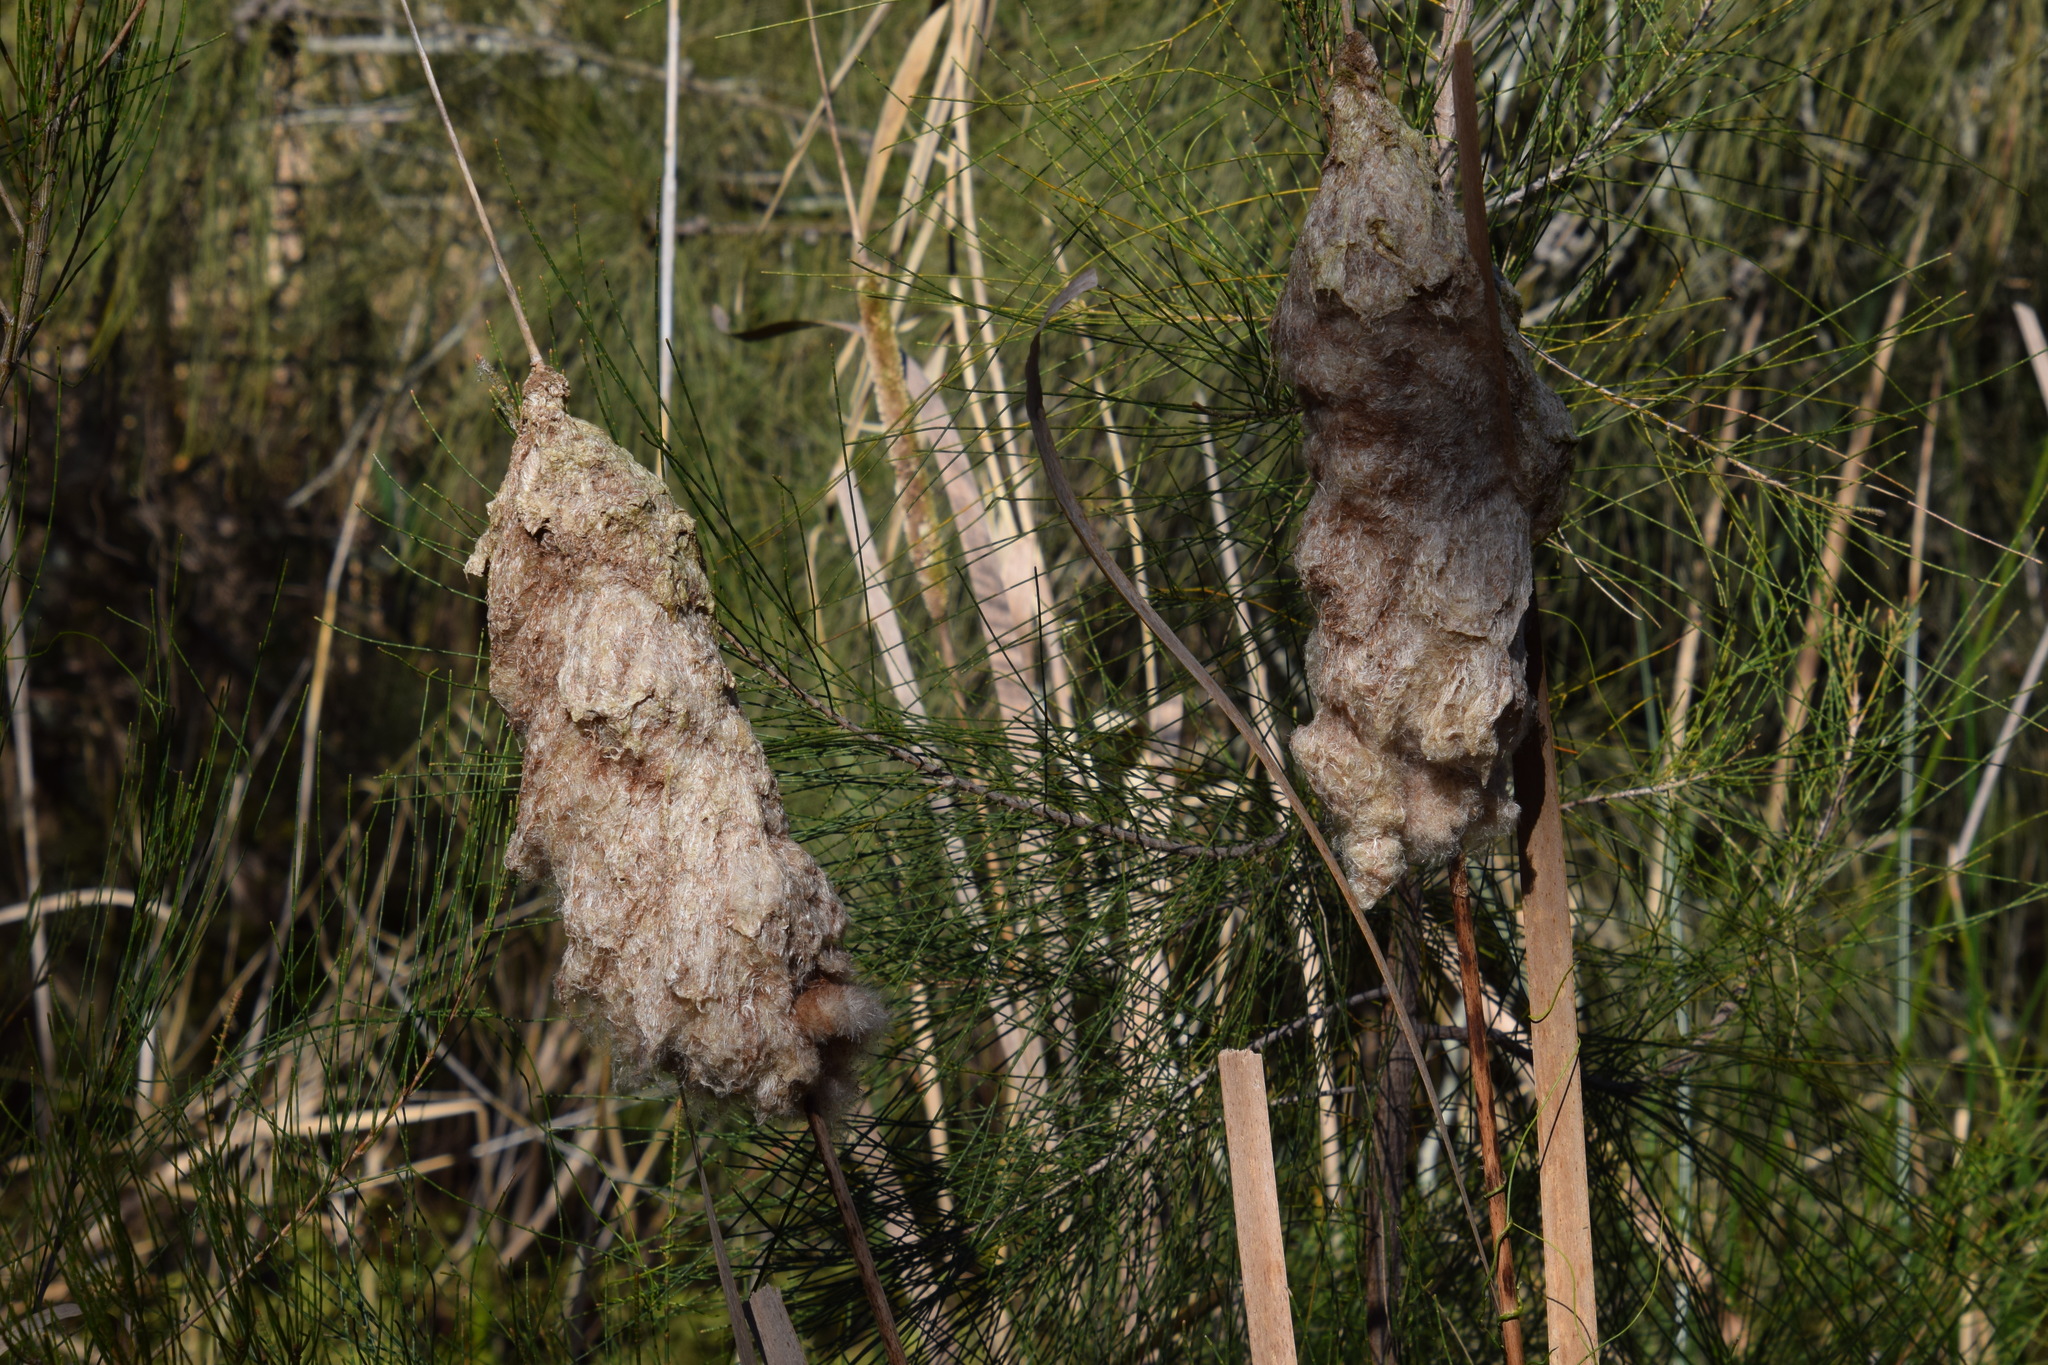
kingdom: Plantae
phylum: Tracheophyta
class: Liliopsida
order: Poales
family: Typhaceae
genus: Typha
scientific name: Typha orientalis
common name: Bullrush
